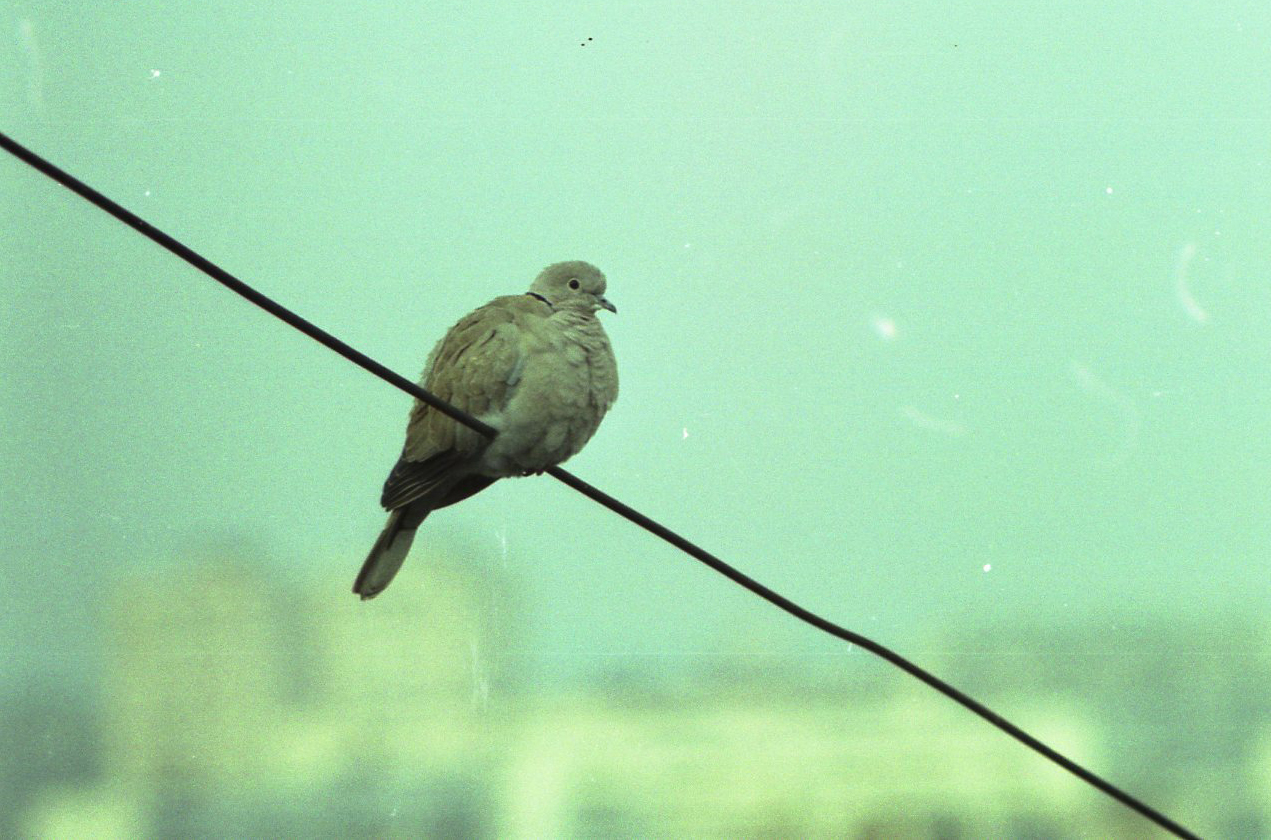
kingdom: Animalia
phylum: Chordata
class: Aves
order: Columbiformes
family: Columbidae
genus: Streptopelia
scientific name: Streptopelia decaocto
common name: Eurasian collared dove
